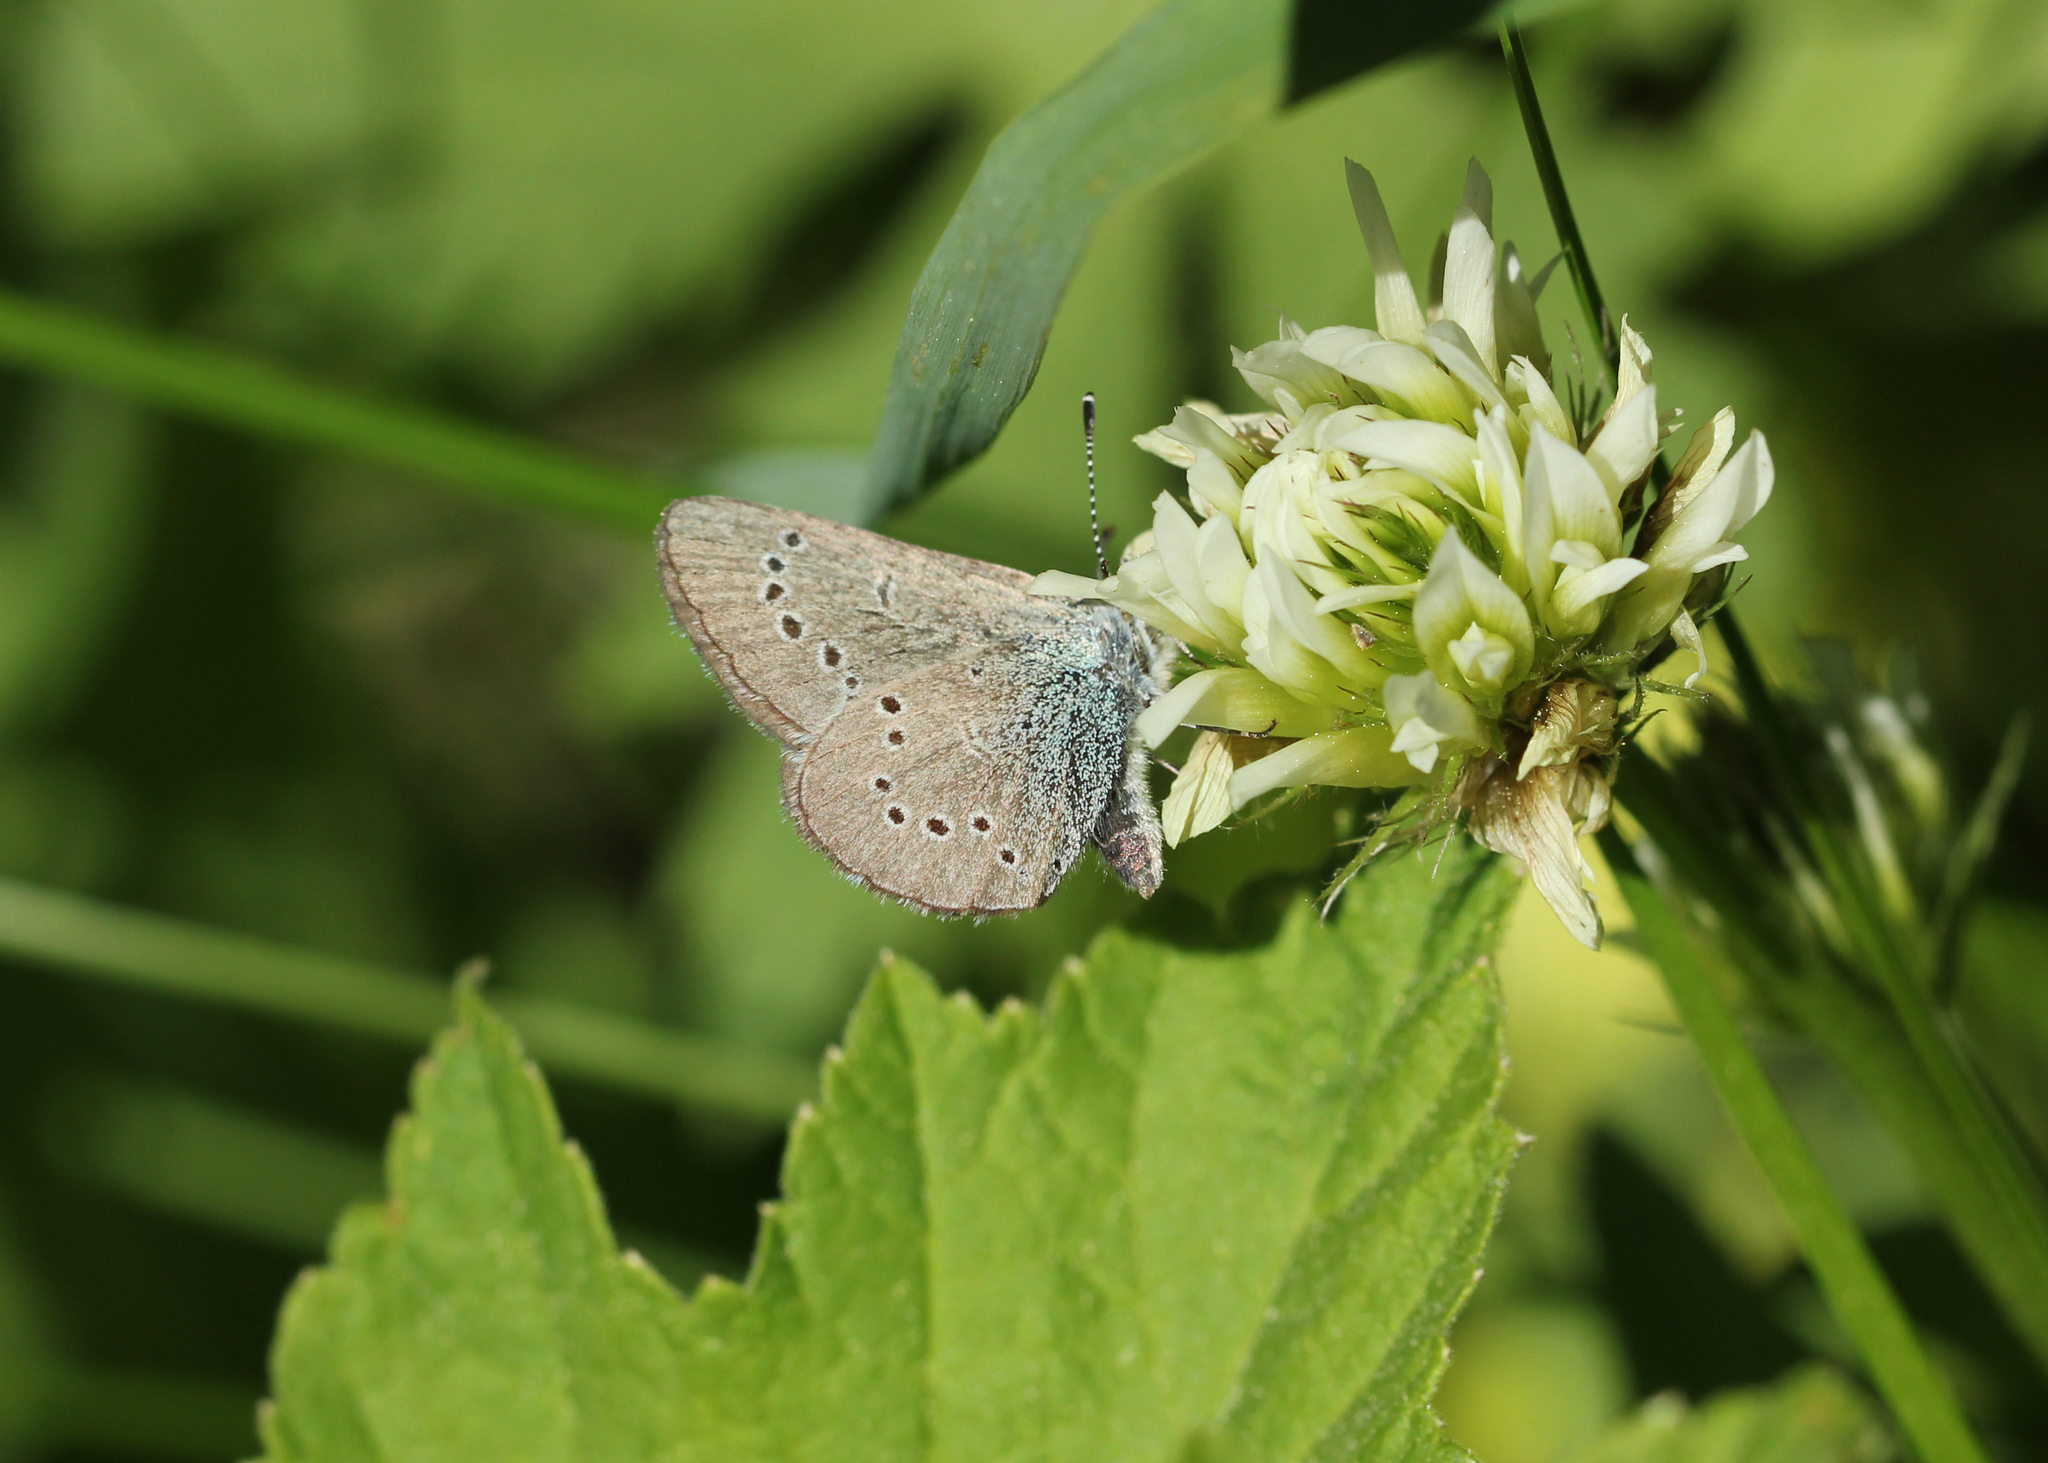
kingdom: Animalia
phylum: Arthropoda
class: Insecta
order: Lepidoptera
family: Lycaenidae
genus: Glaucopsyche
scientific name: Glaucopsyche lygdamus
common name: Silvery blue
